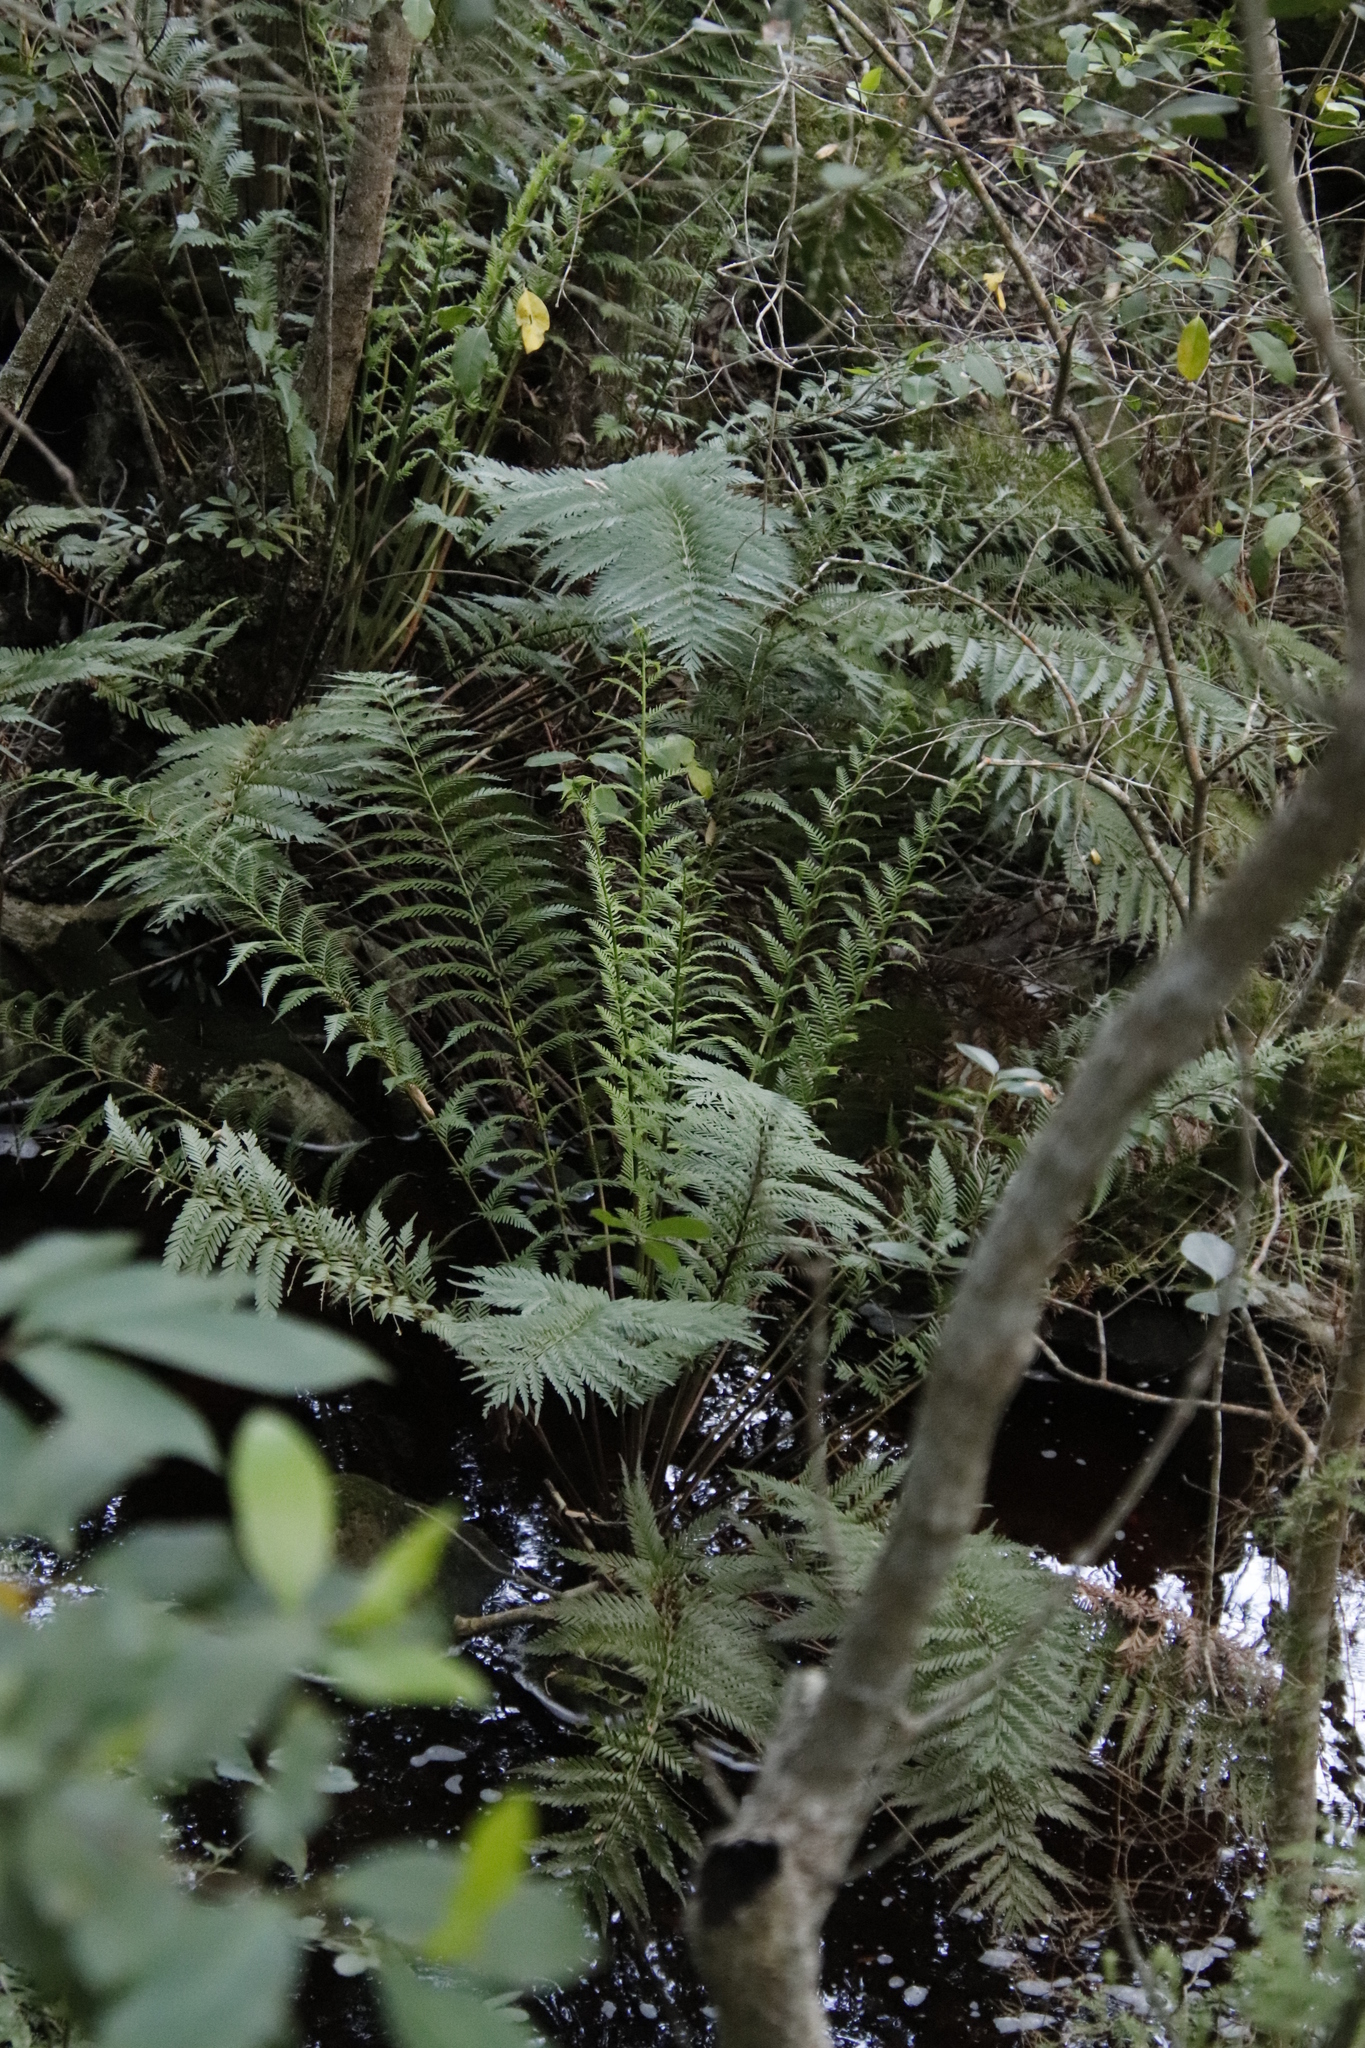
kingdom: Plantae
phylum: Tracheophyta
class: Polypodiopsida
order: Osmundales
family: Osmundaceae
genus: Todea
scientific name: Todea barbara
